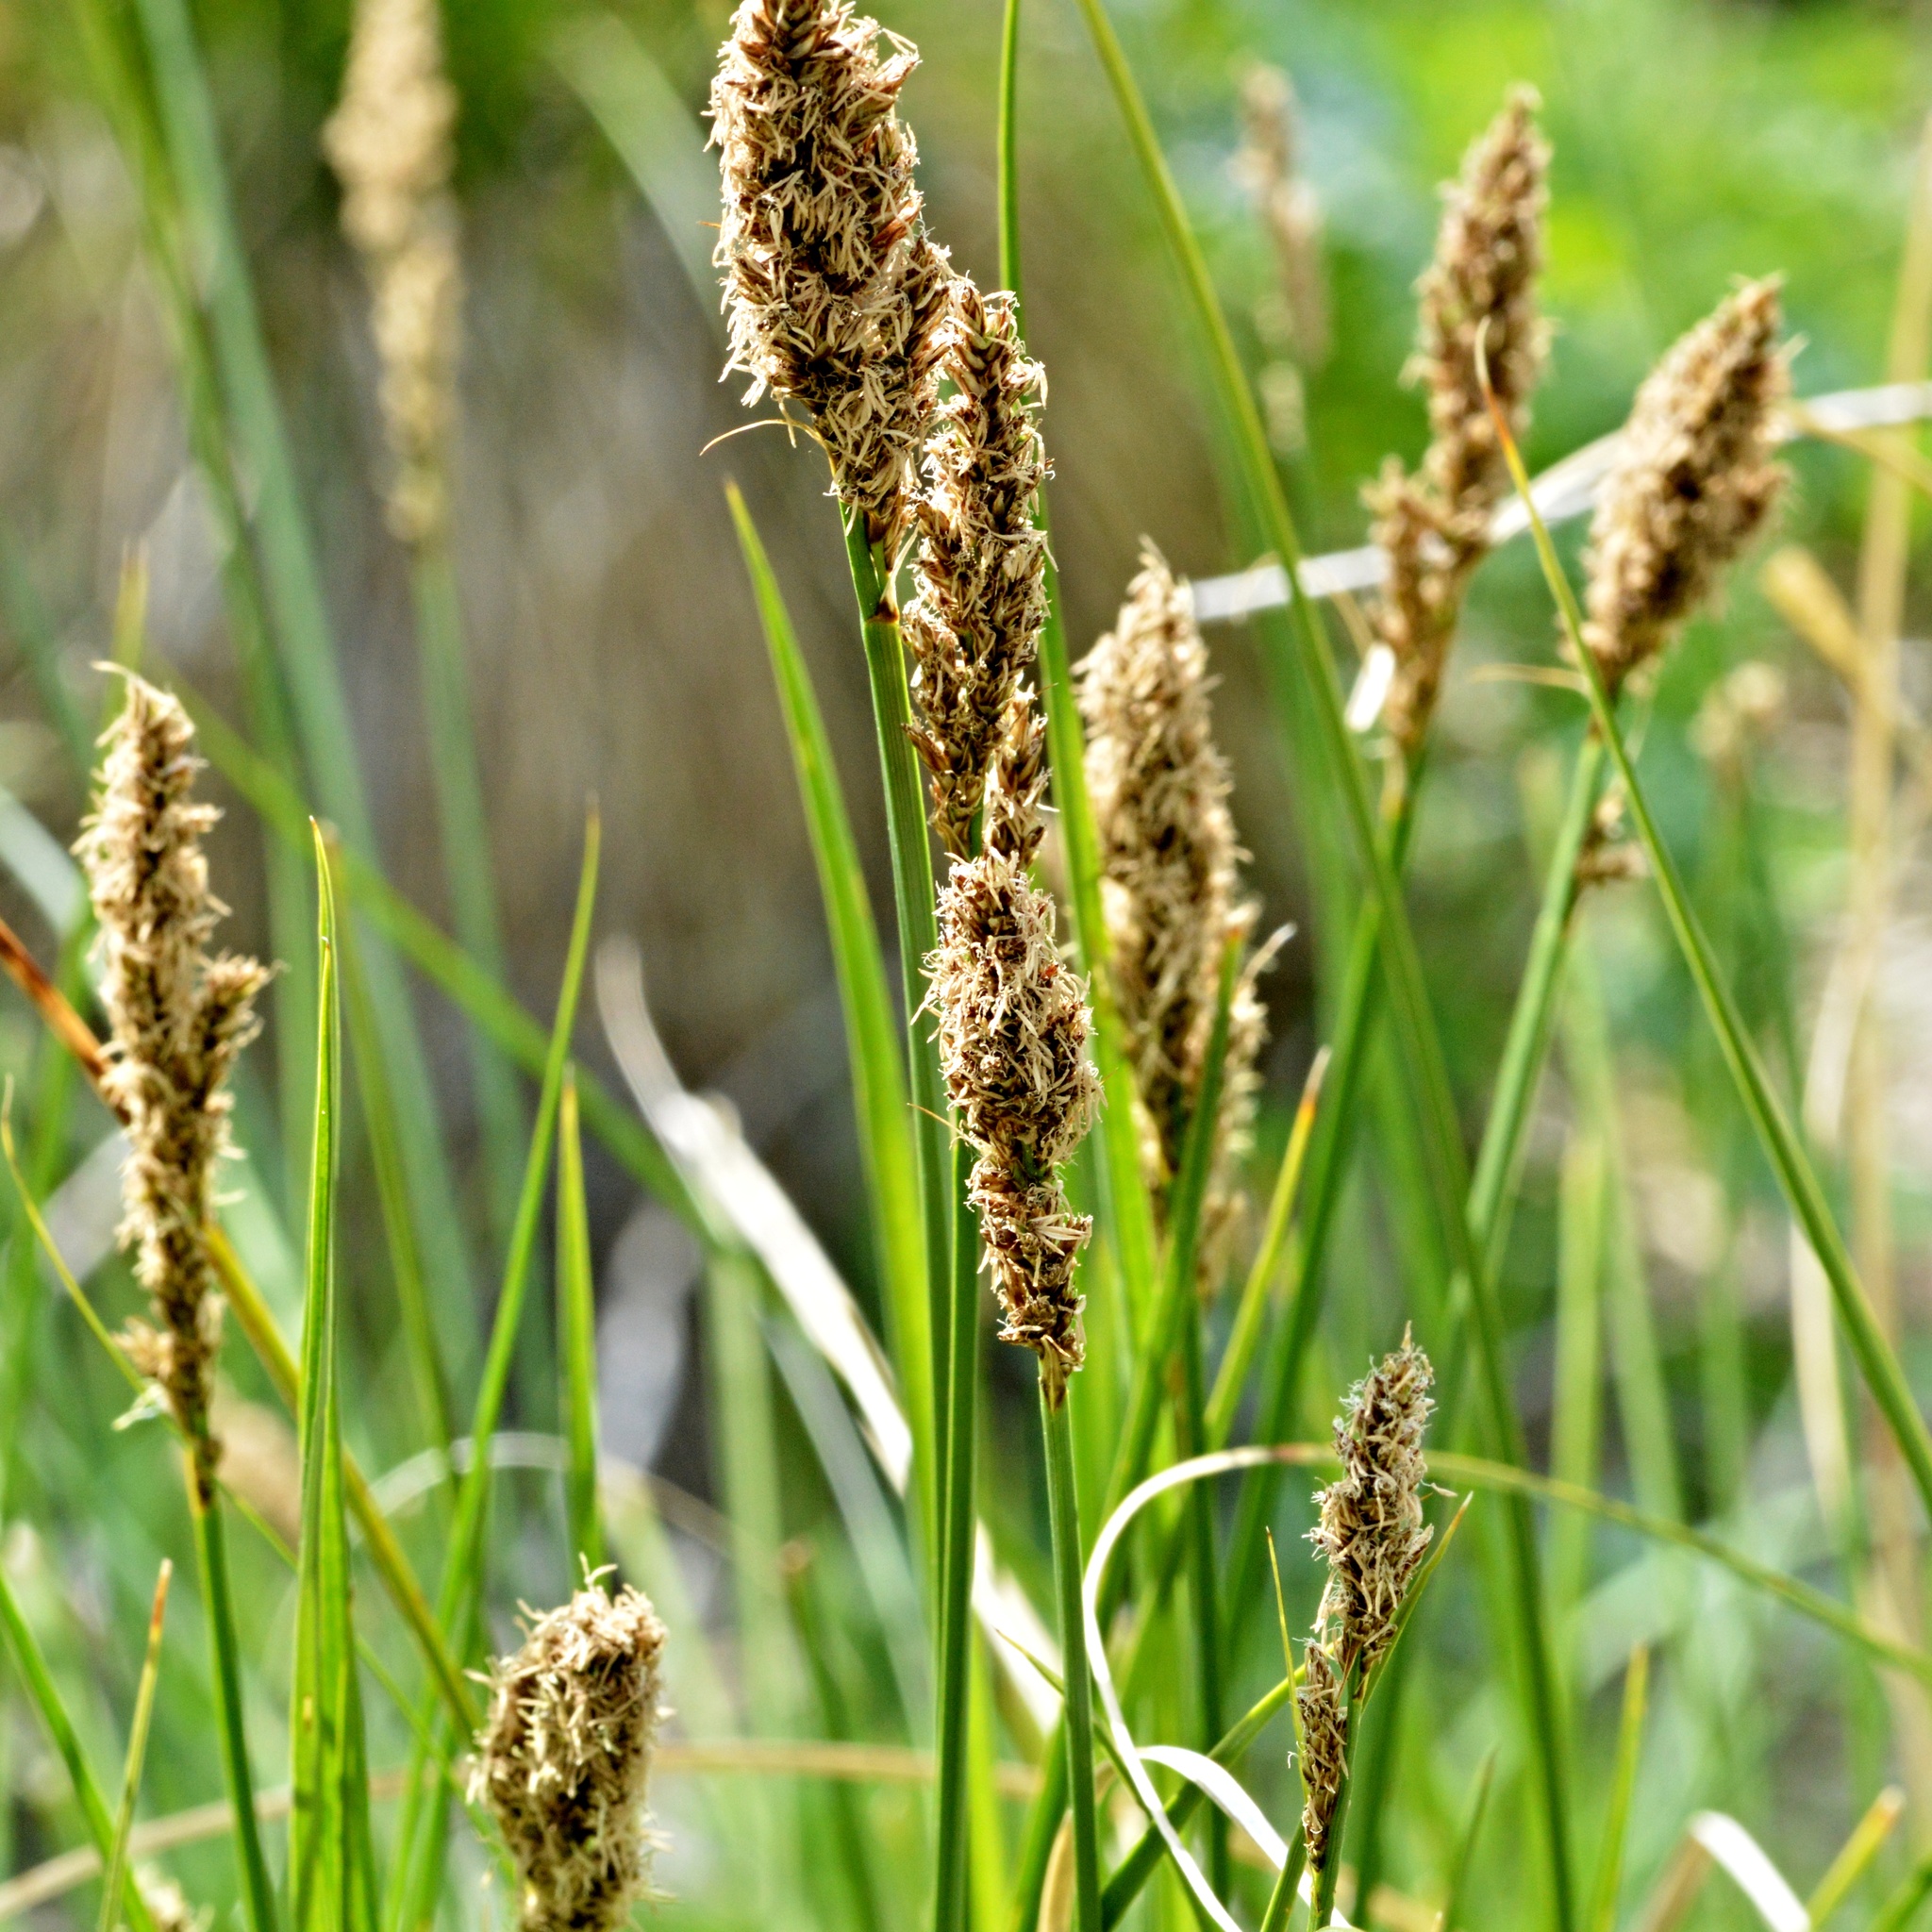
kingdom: Plantae
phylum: Tracheophyta
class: Liliopsida
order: Poales
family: Cyperaceae
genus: Carex
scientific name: Carex appropinquata
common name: Fibrous tussock-sedge
